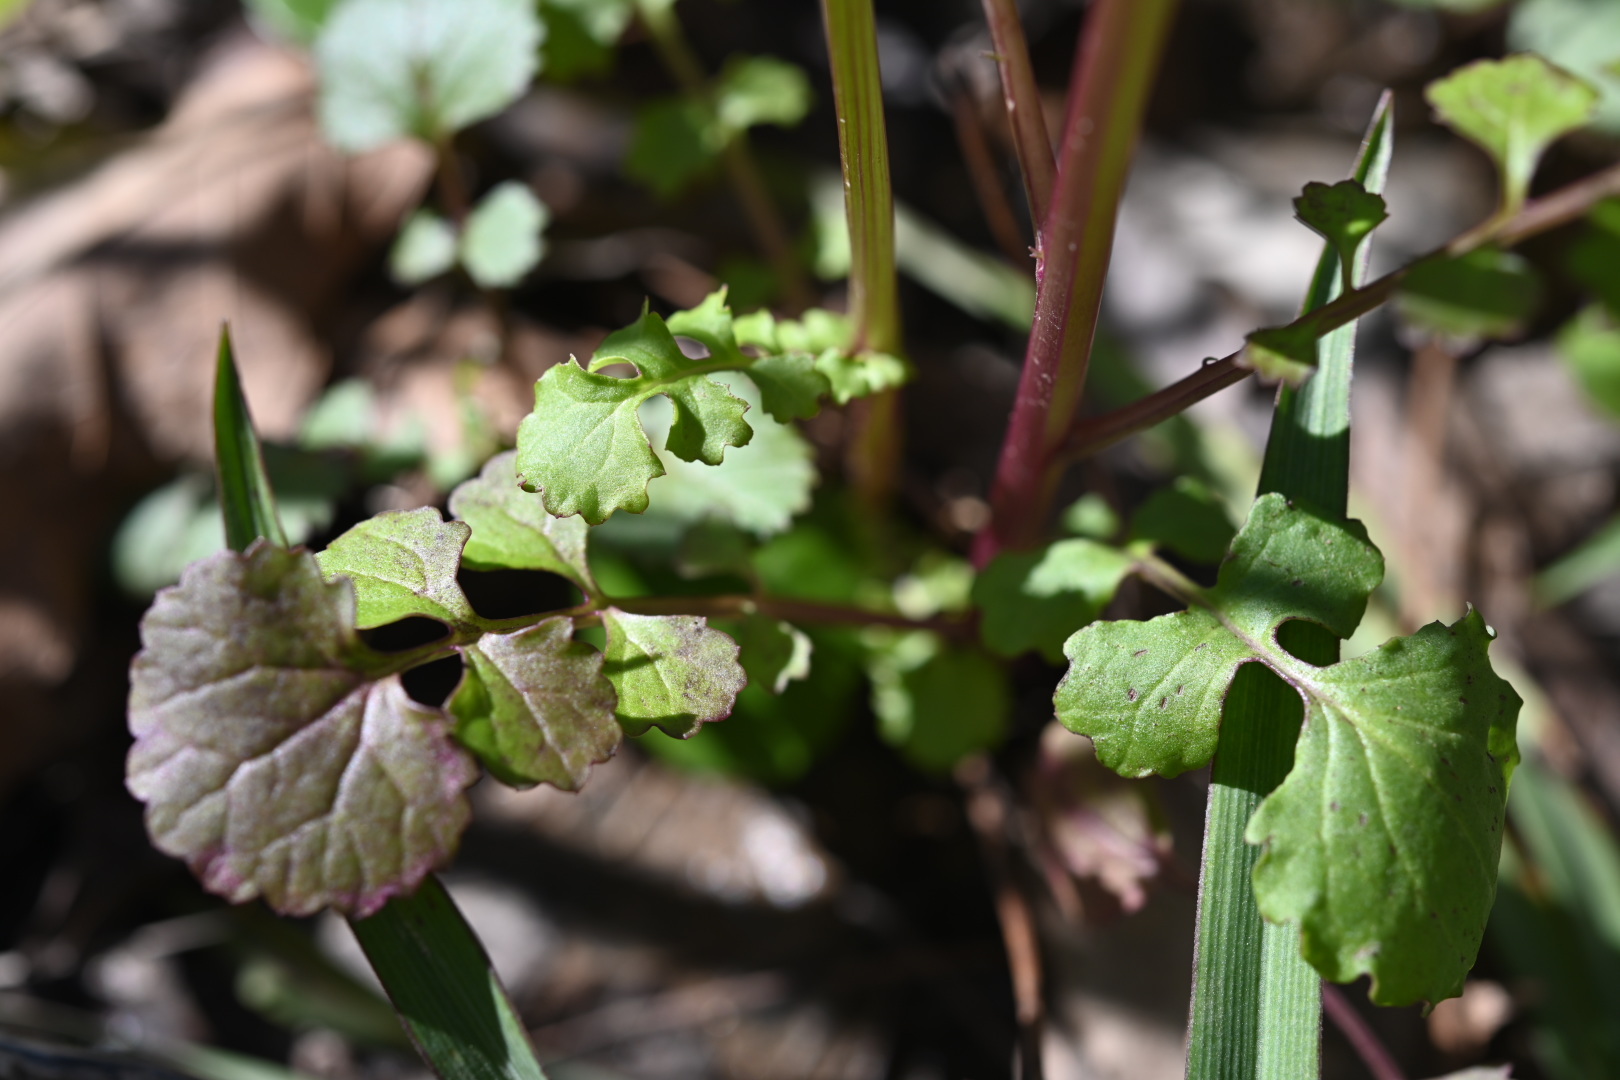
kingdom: Plantae
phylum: Tracheophyta
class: Magnoliopsida
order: Asterales
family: Asteraceae
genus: Packera
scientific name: Packera glabella
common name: Butterweed
